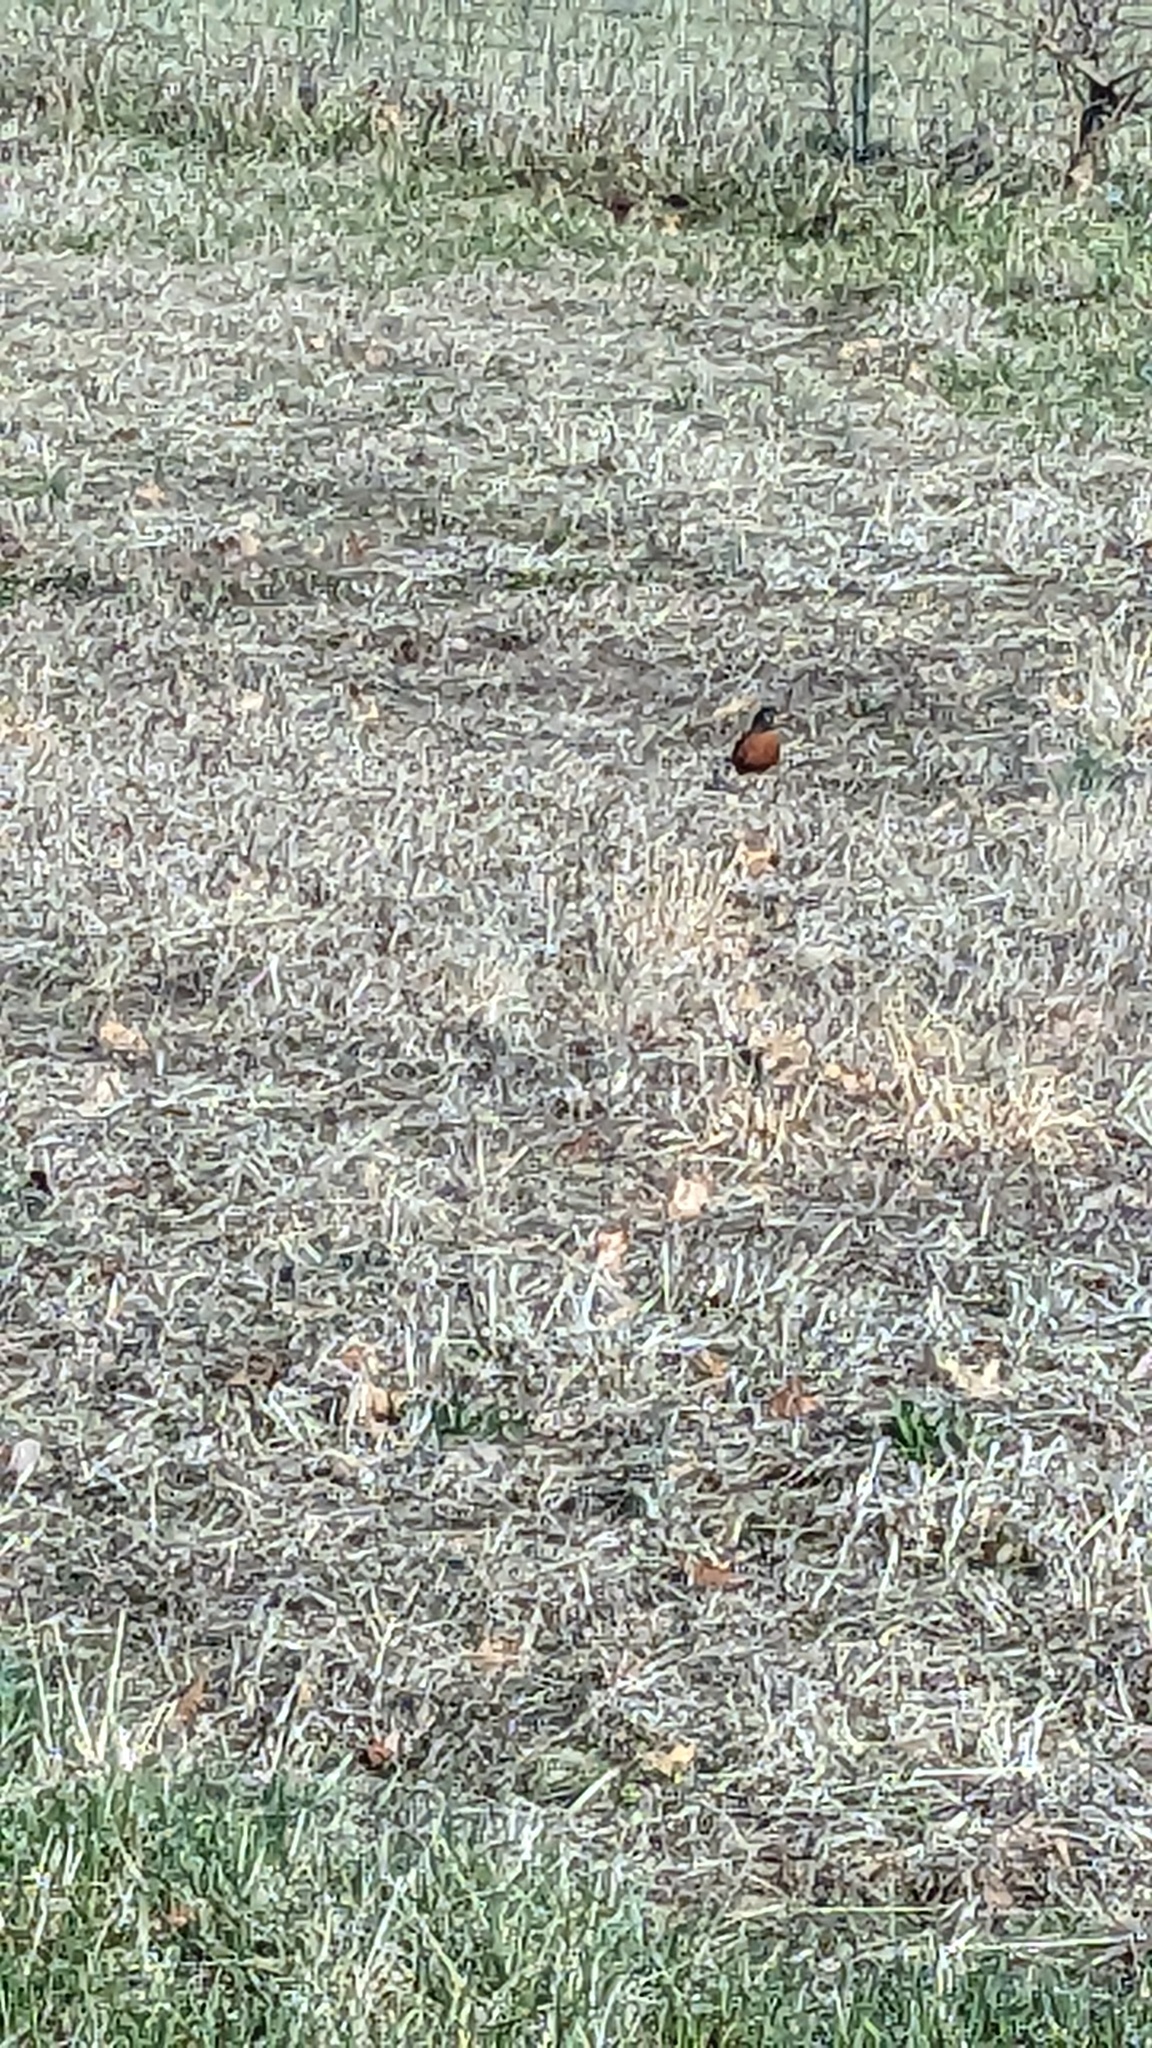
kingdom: Animalia
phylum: Chordata
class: Aves
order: Passeriformes
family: Turdidae
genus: Turdus
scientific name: Turdus migratorius
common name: American robin
